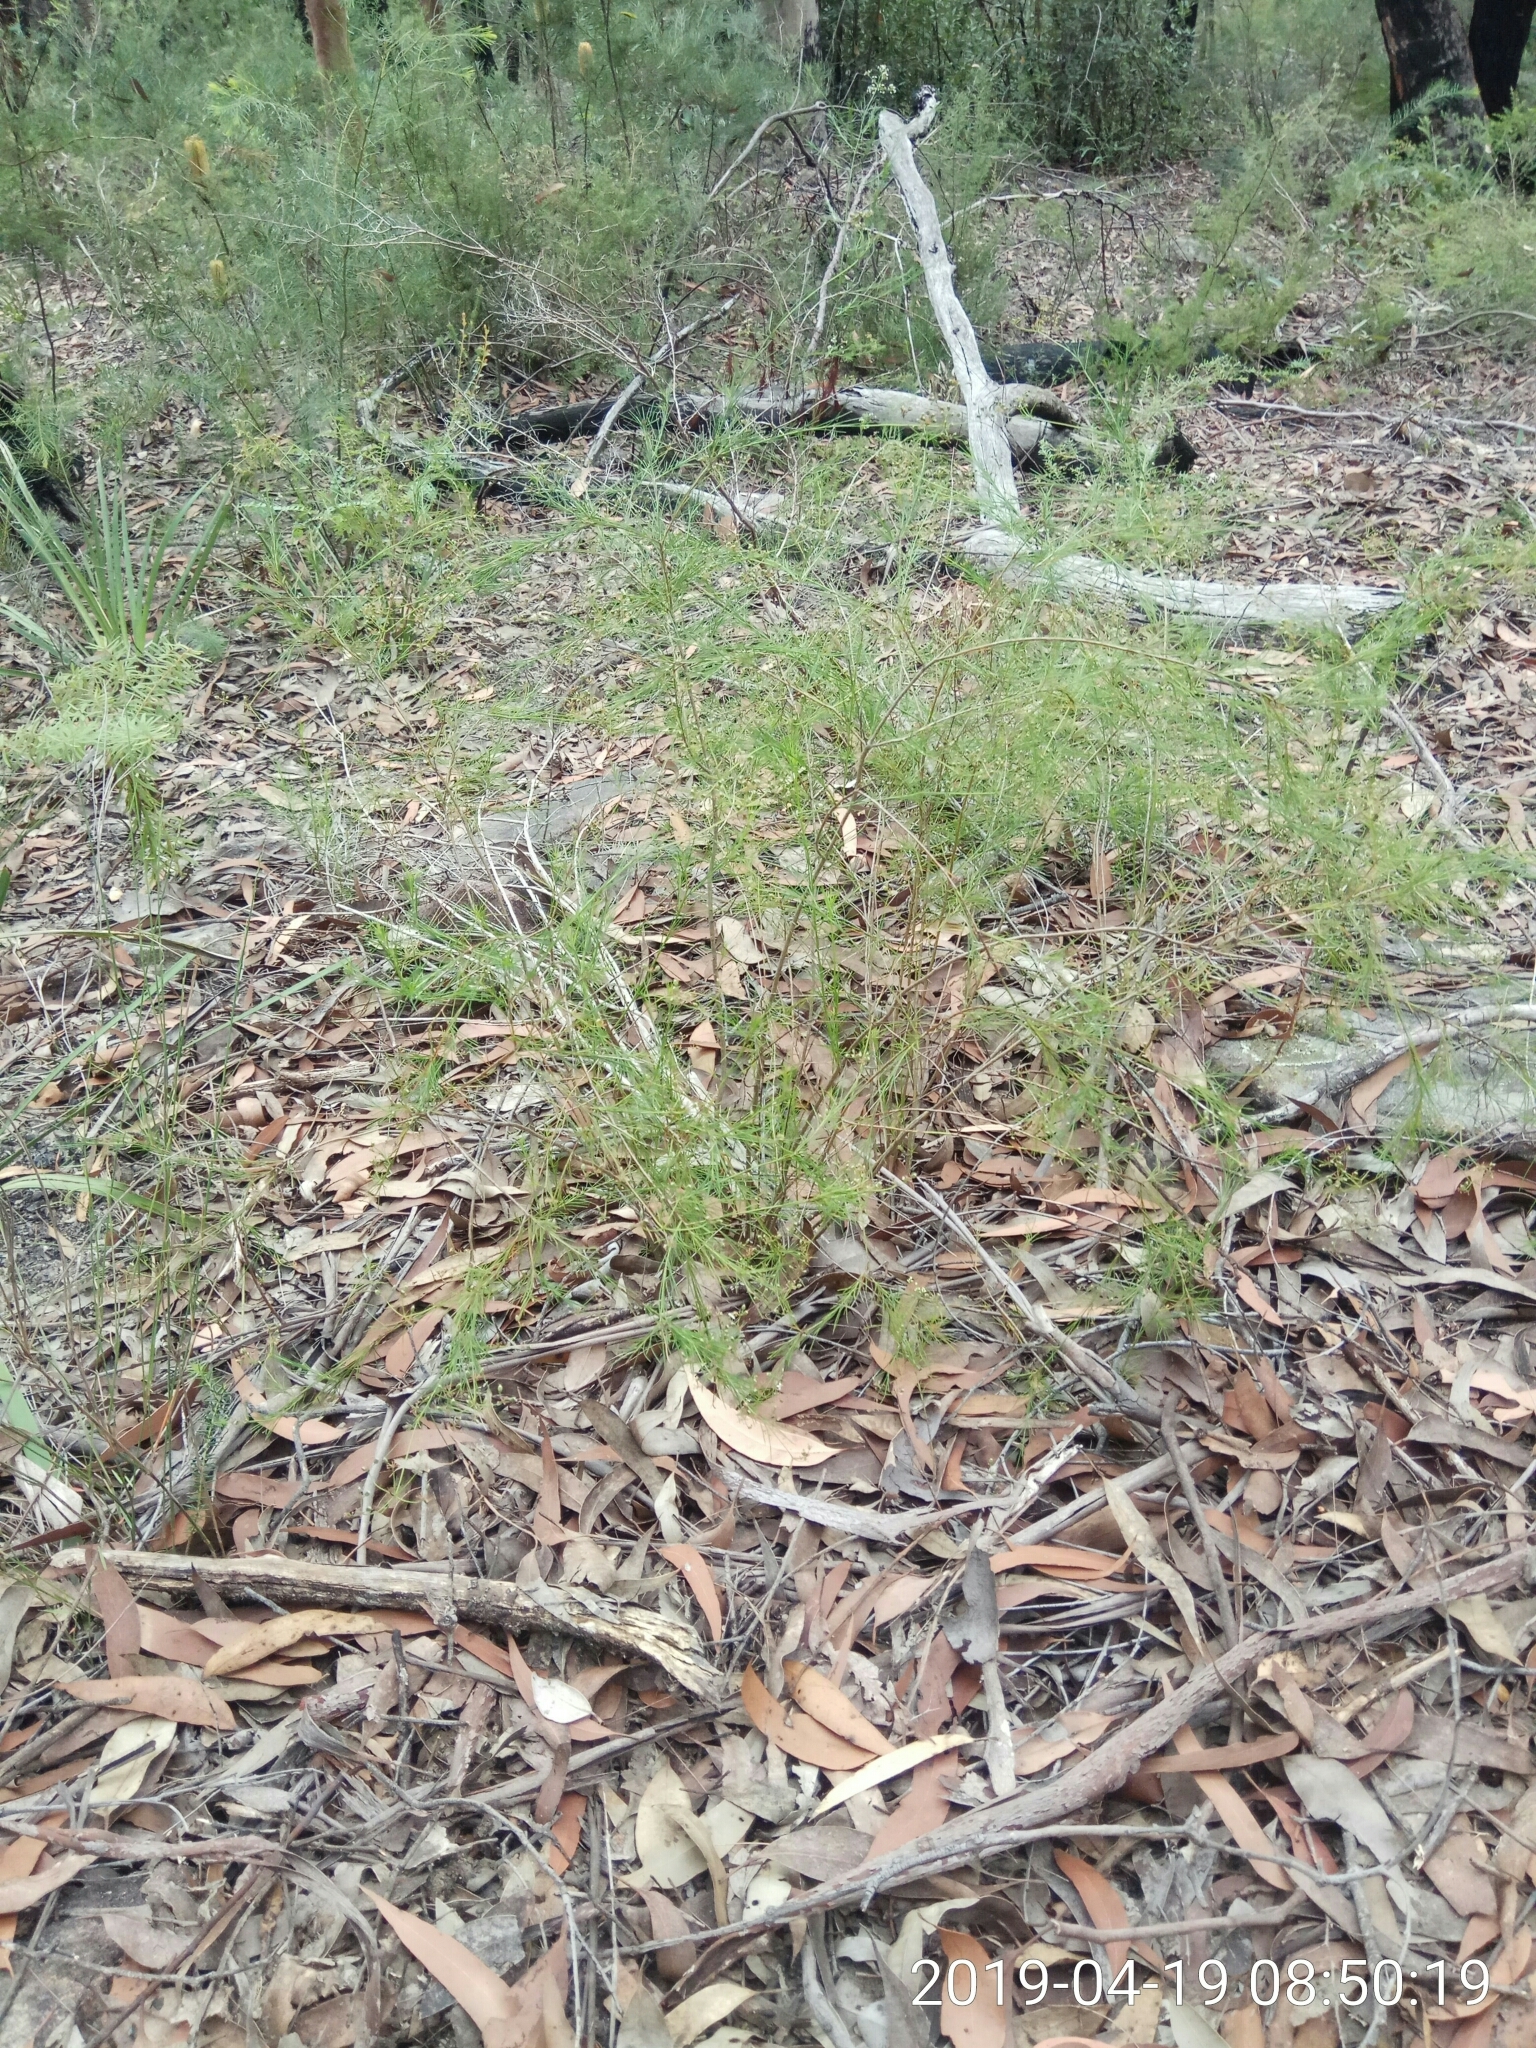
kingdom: Plantae
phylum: Tracheophyta
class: Magnoliopsida
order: Apiales
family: Apiaceae
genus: Platysace
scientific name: Platysace linearifolia
